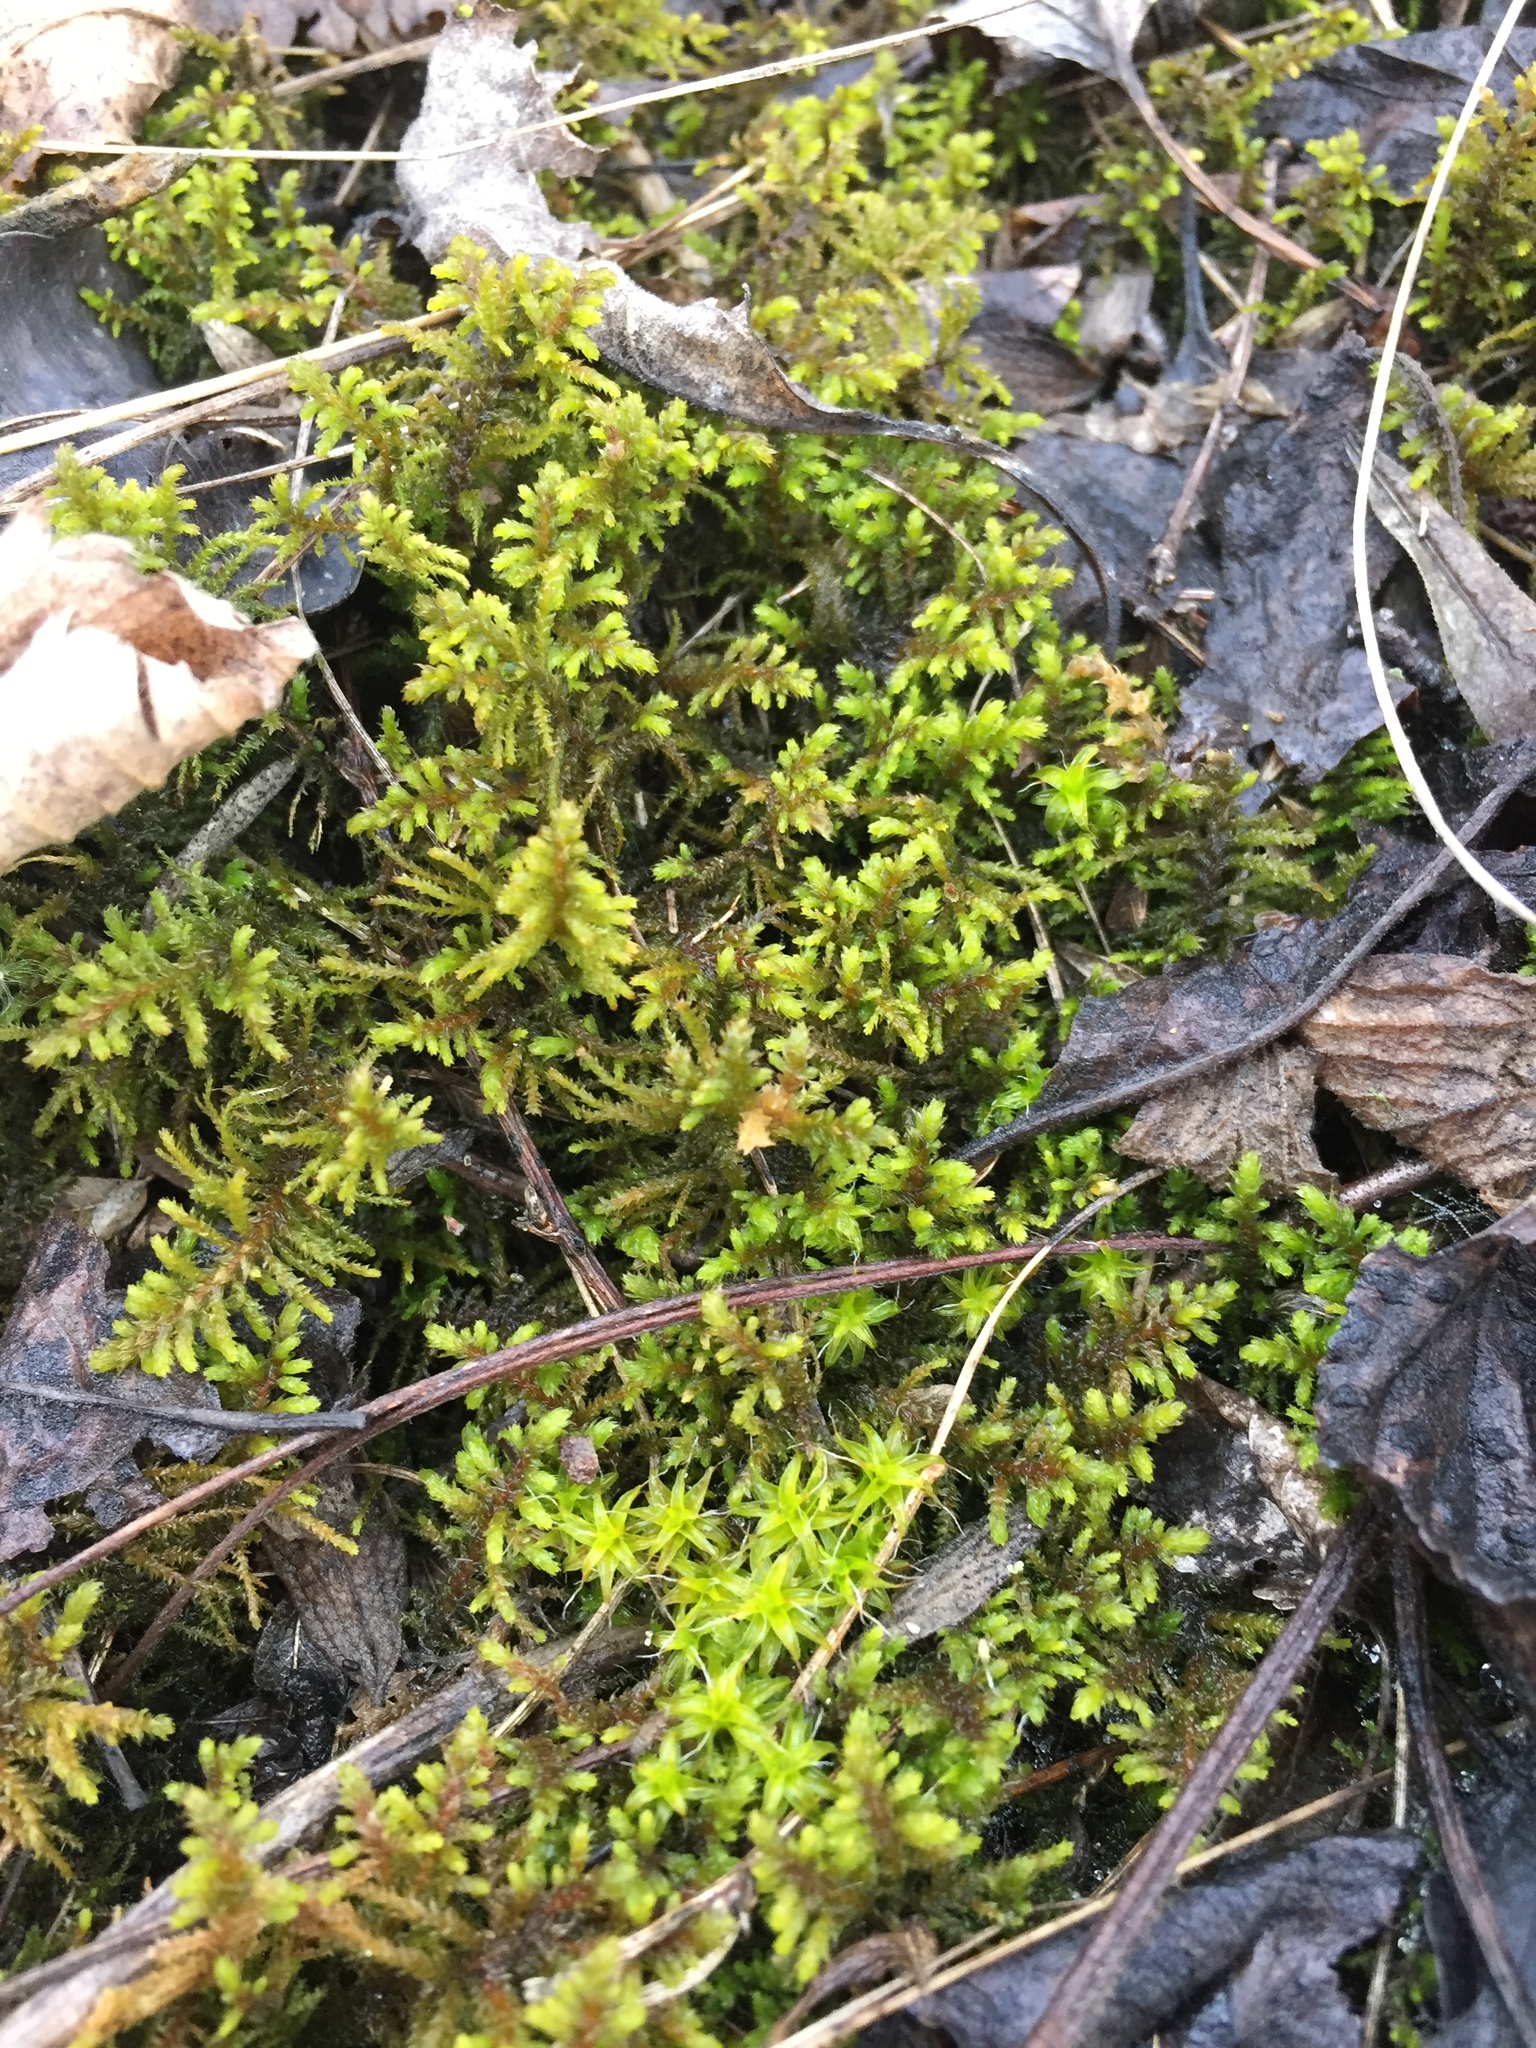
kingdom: Plantae
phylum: Bryophyta
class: Bryopsida
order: Hypnales
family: Thuidiaceae
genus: Abietinella
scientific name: Abietinella abietina
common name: Wiry fern moss
